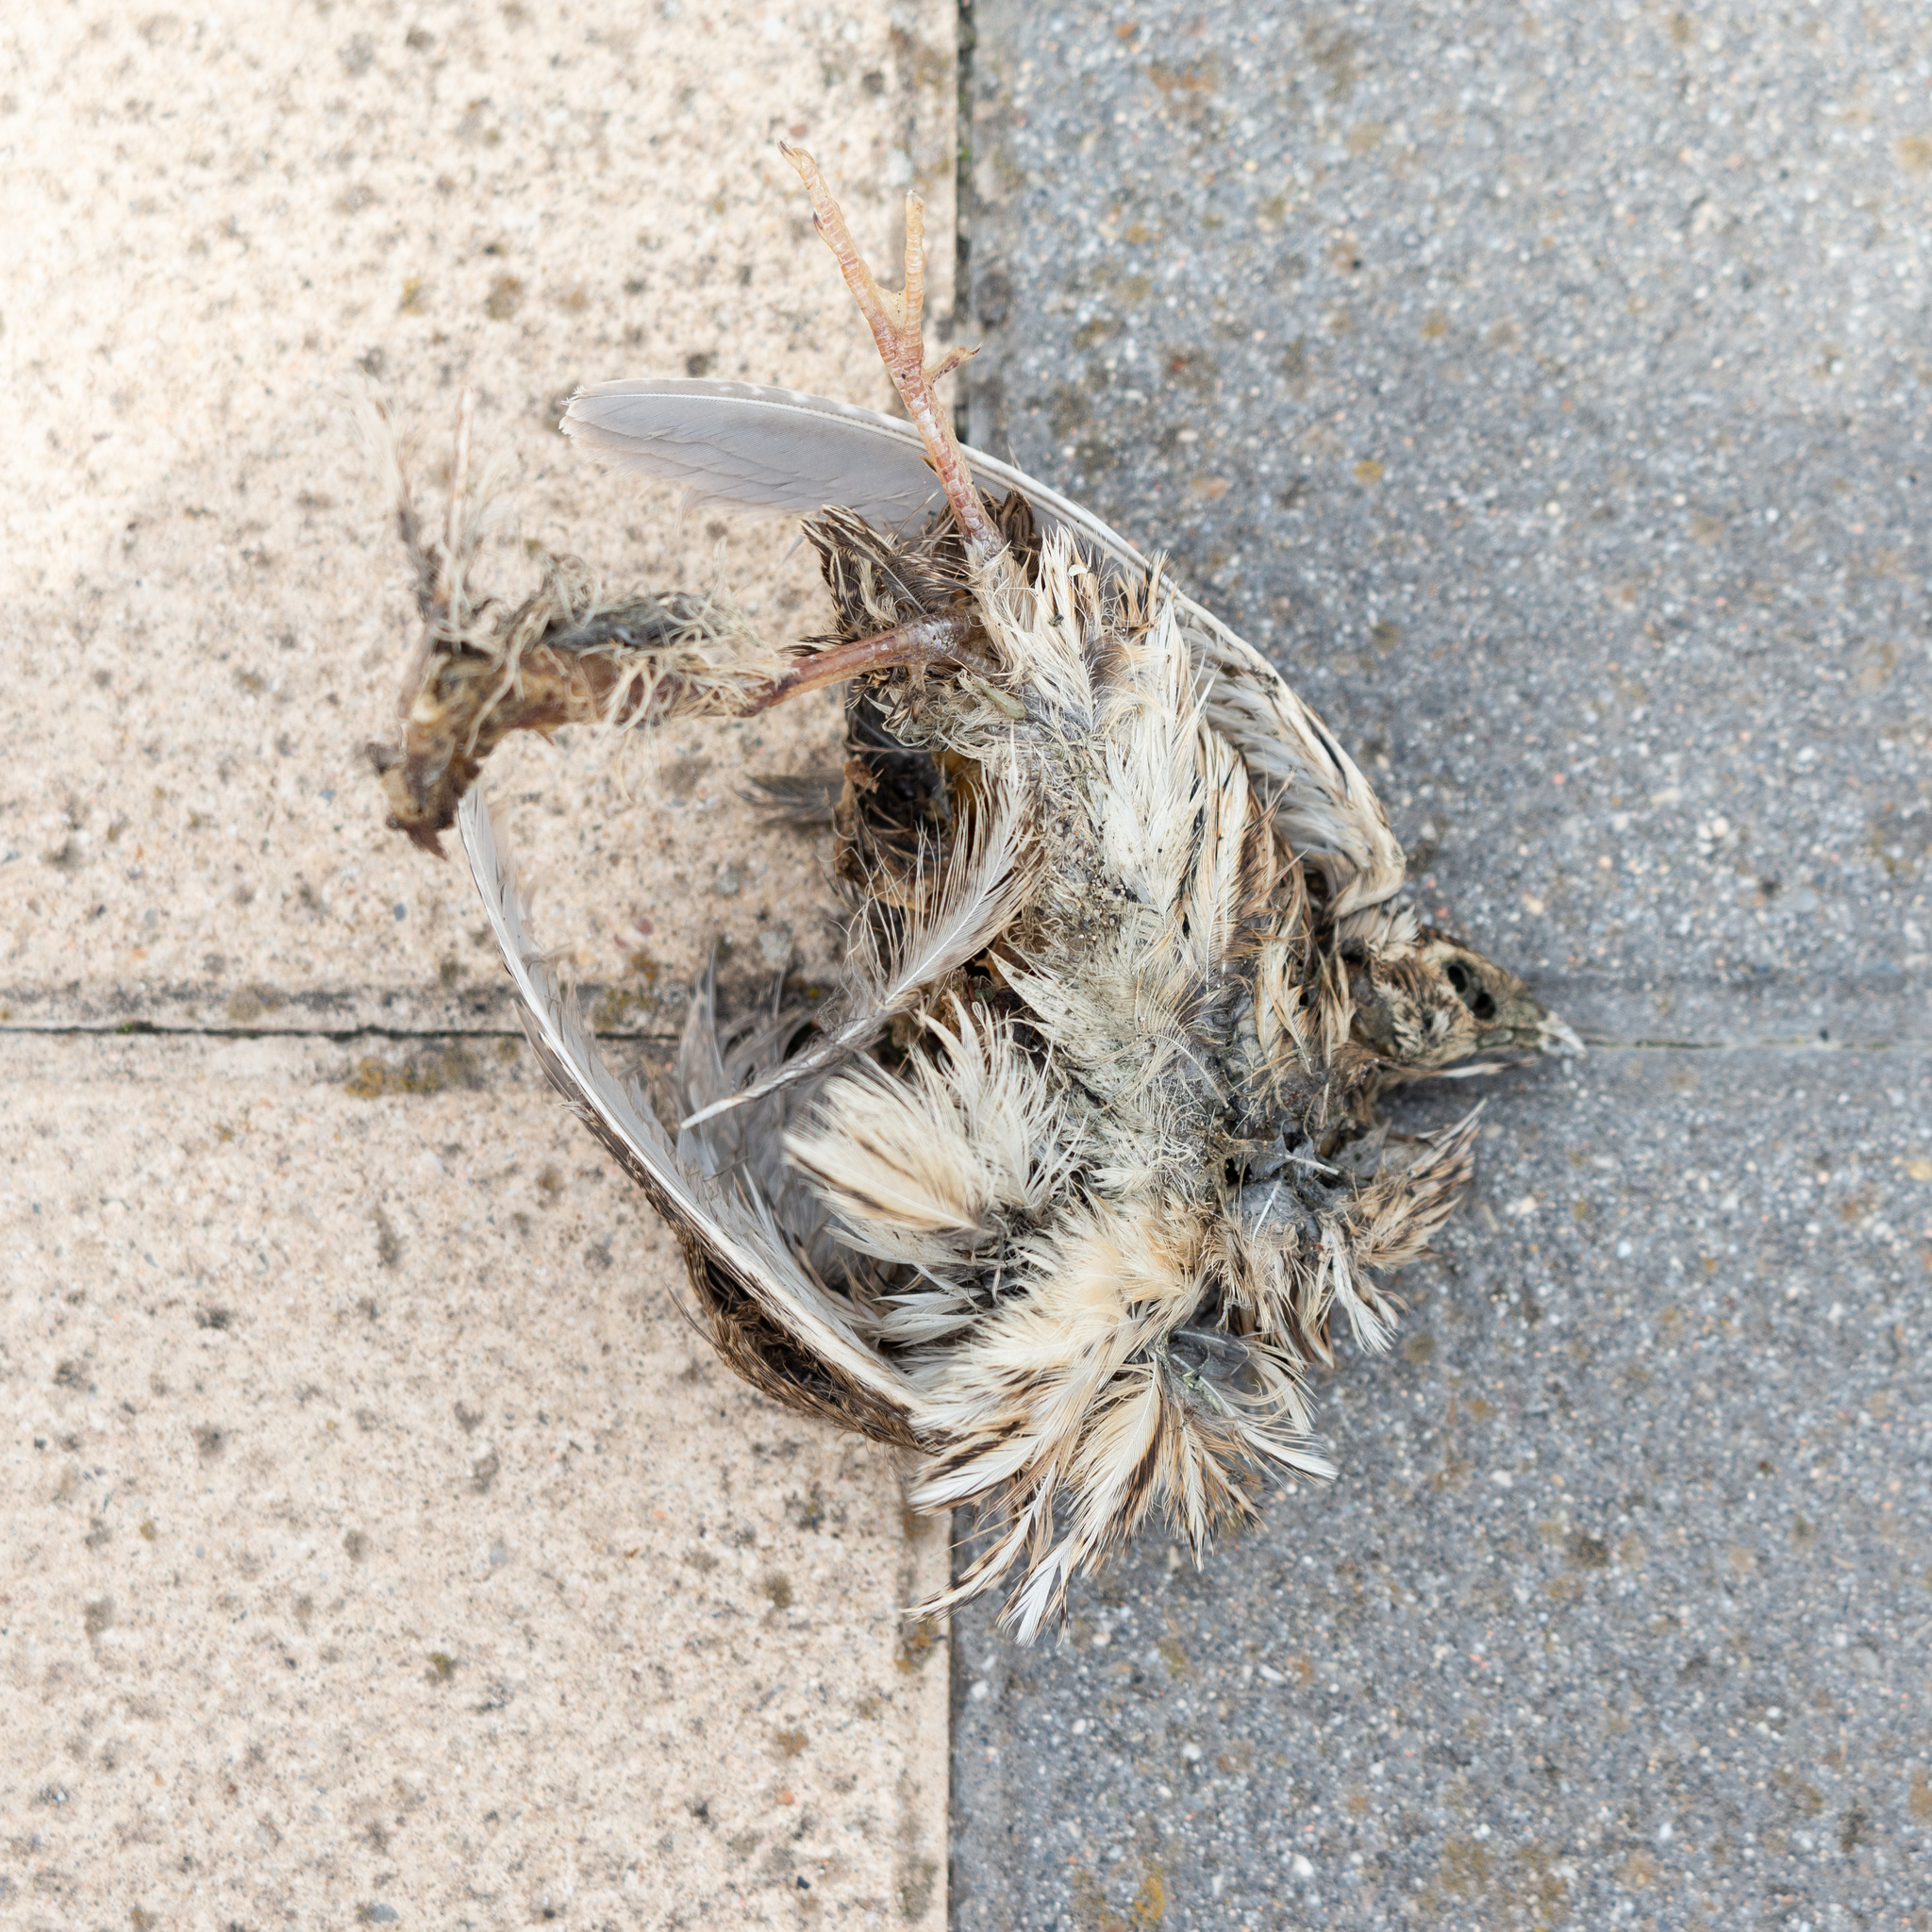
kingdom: Animalia
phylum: Chordata
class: Aves
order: Galliformes
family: Phasianidae
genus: Coturnix
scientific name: Coturnix coturnix
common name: Common quail
